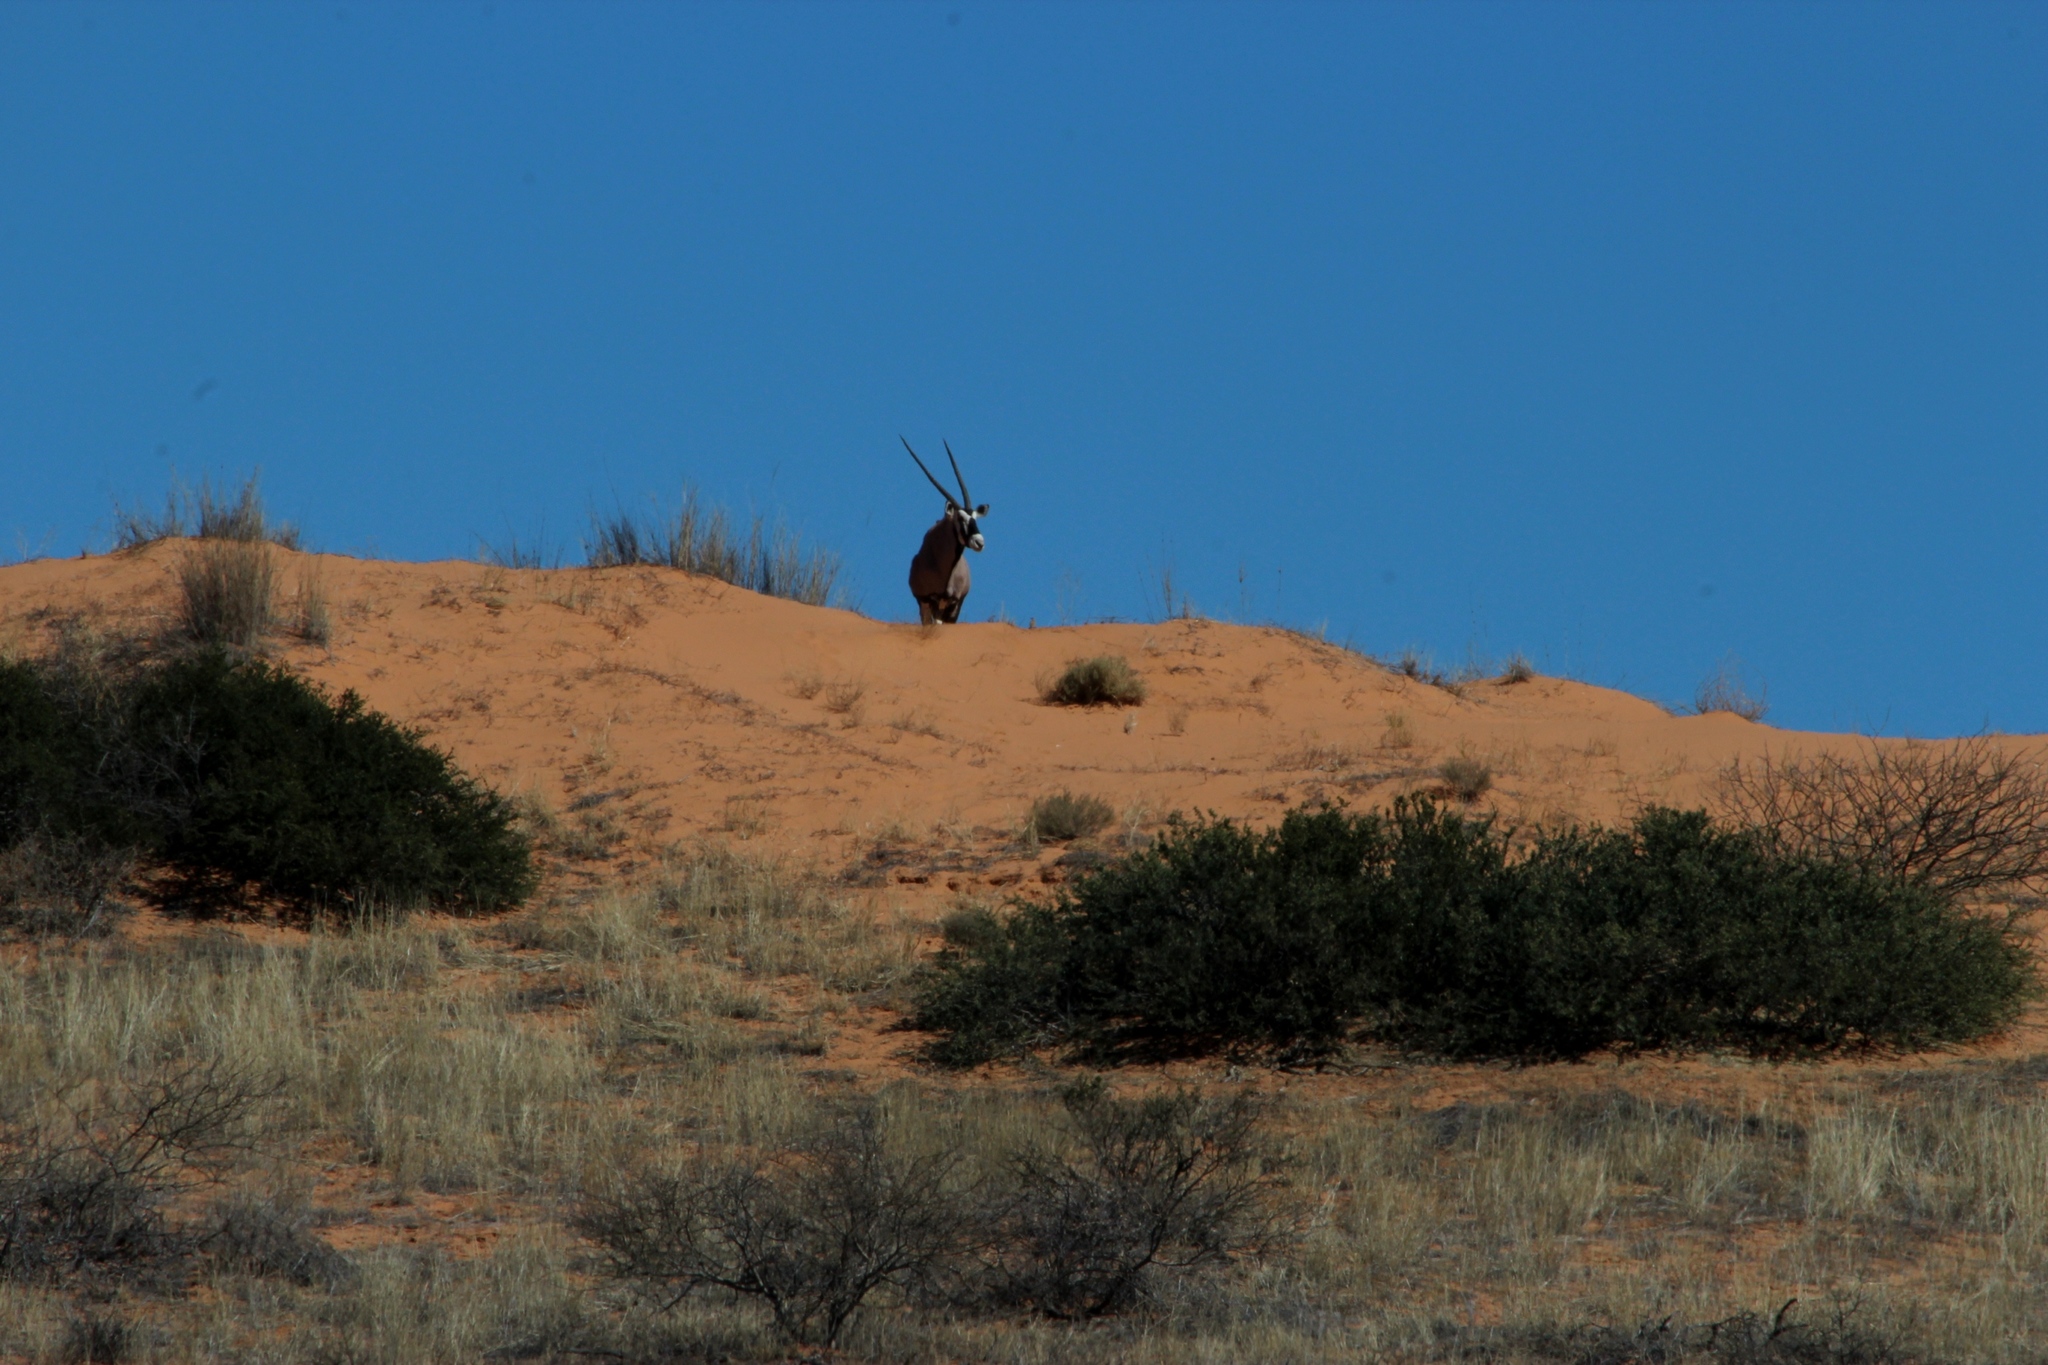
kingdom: Animalia
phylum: Chordata
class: Mammalia
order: Artiodactyla
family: Bovidae
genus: Oryx
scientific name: Oryx gazella
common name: Gemsbok
